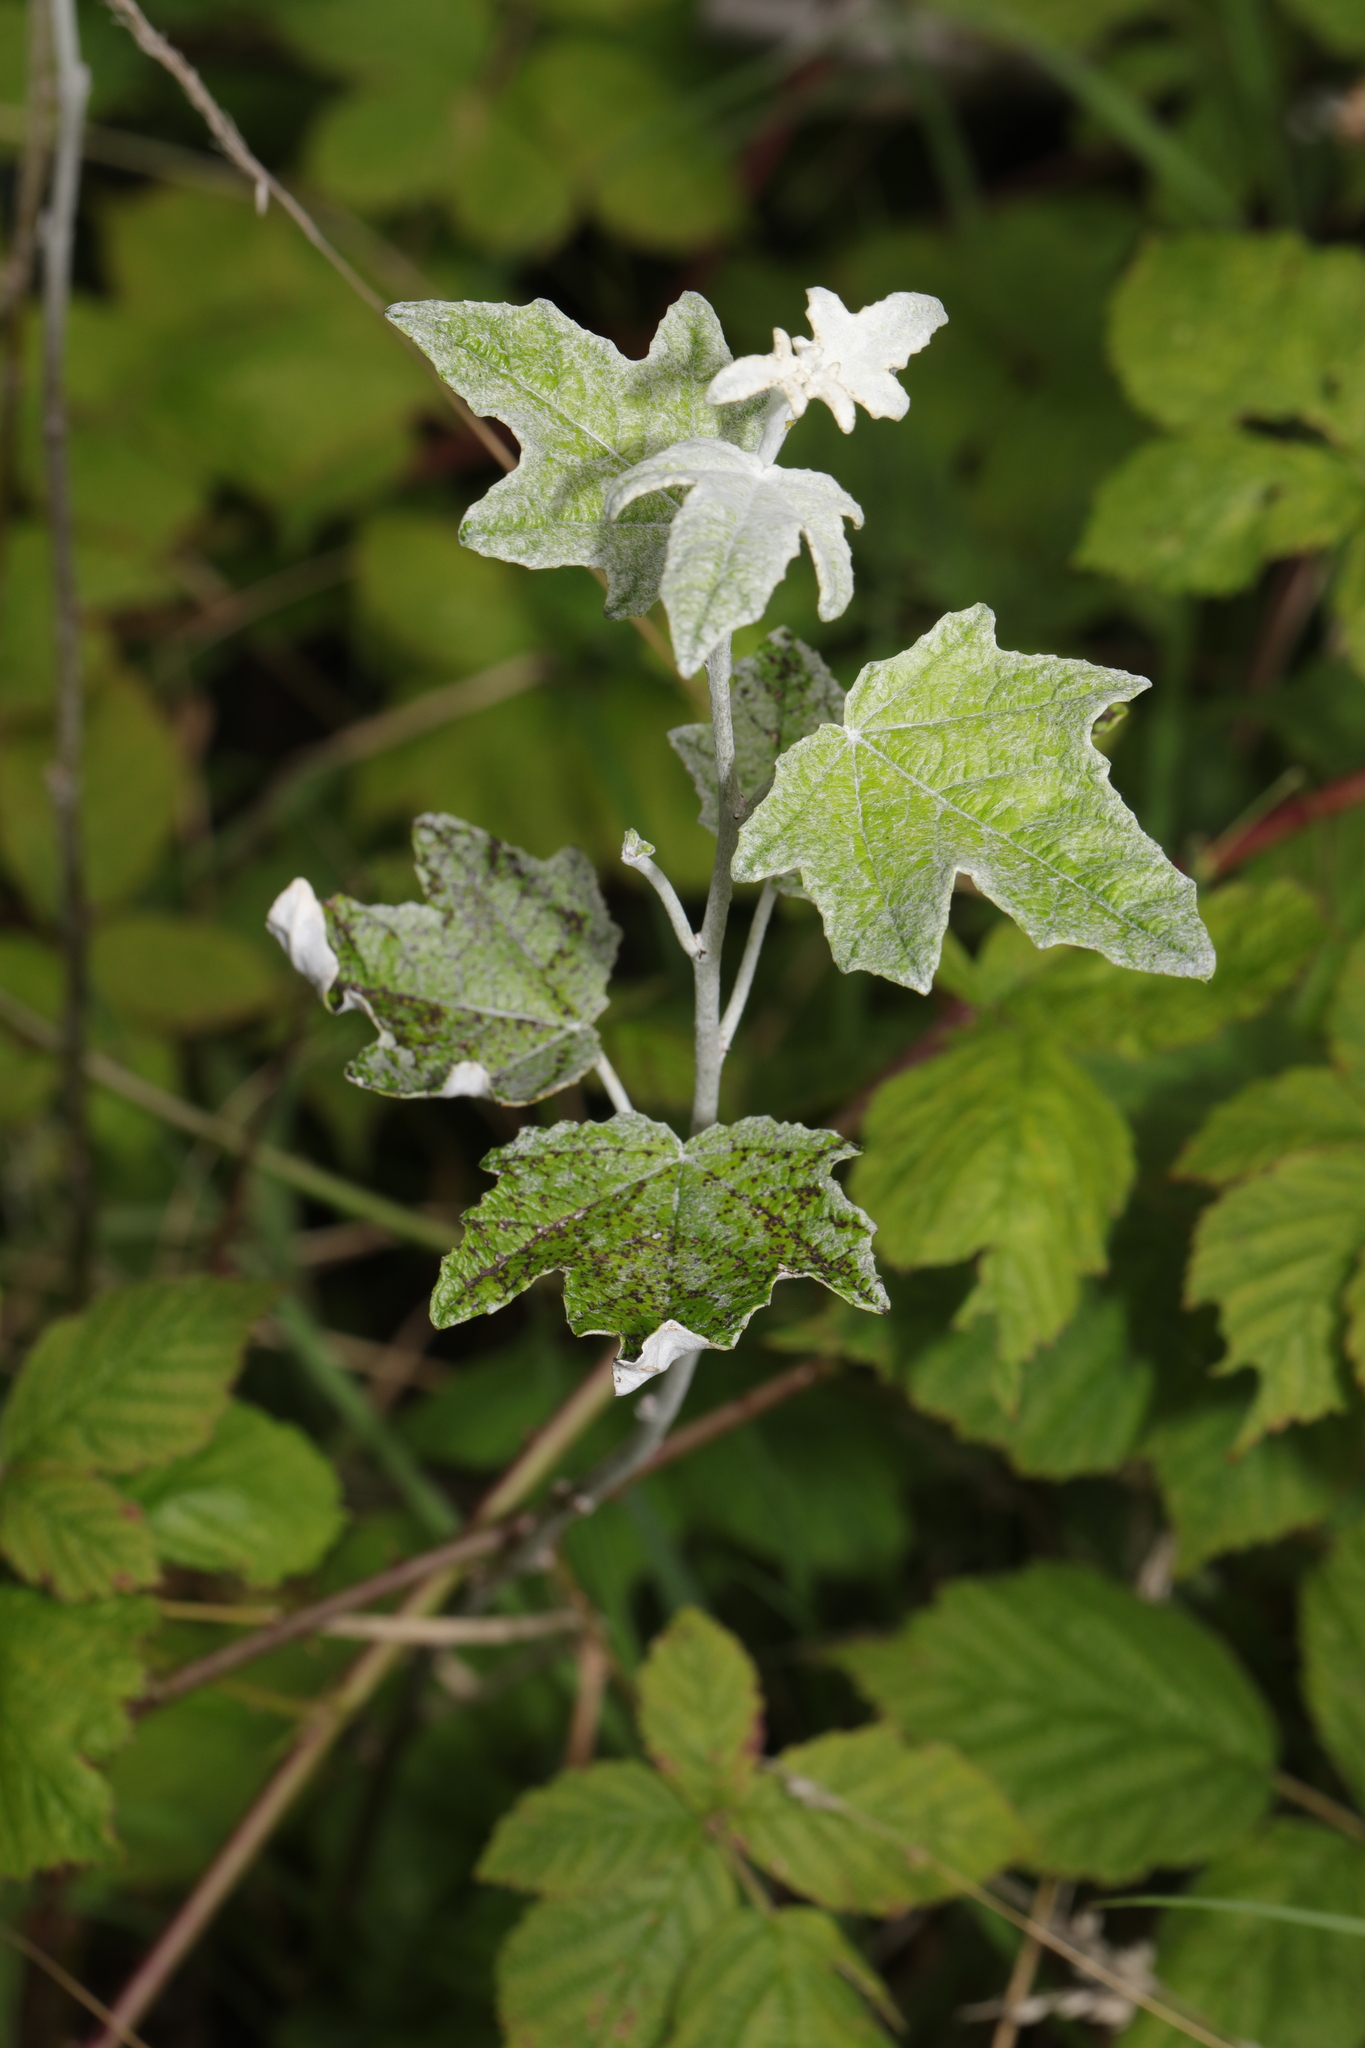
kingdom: Plantae
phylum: Tracheophyta
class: Magnoliopsida
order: Malpighiales
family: Salicaceae
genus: Populus
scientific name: Populus alba
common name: White poplar
